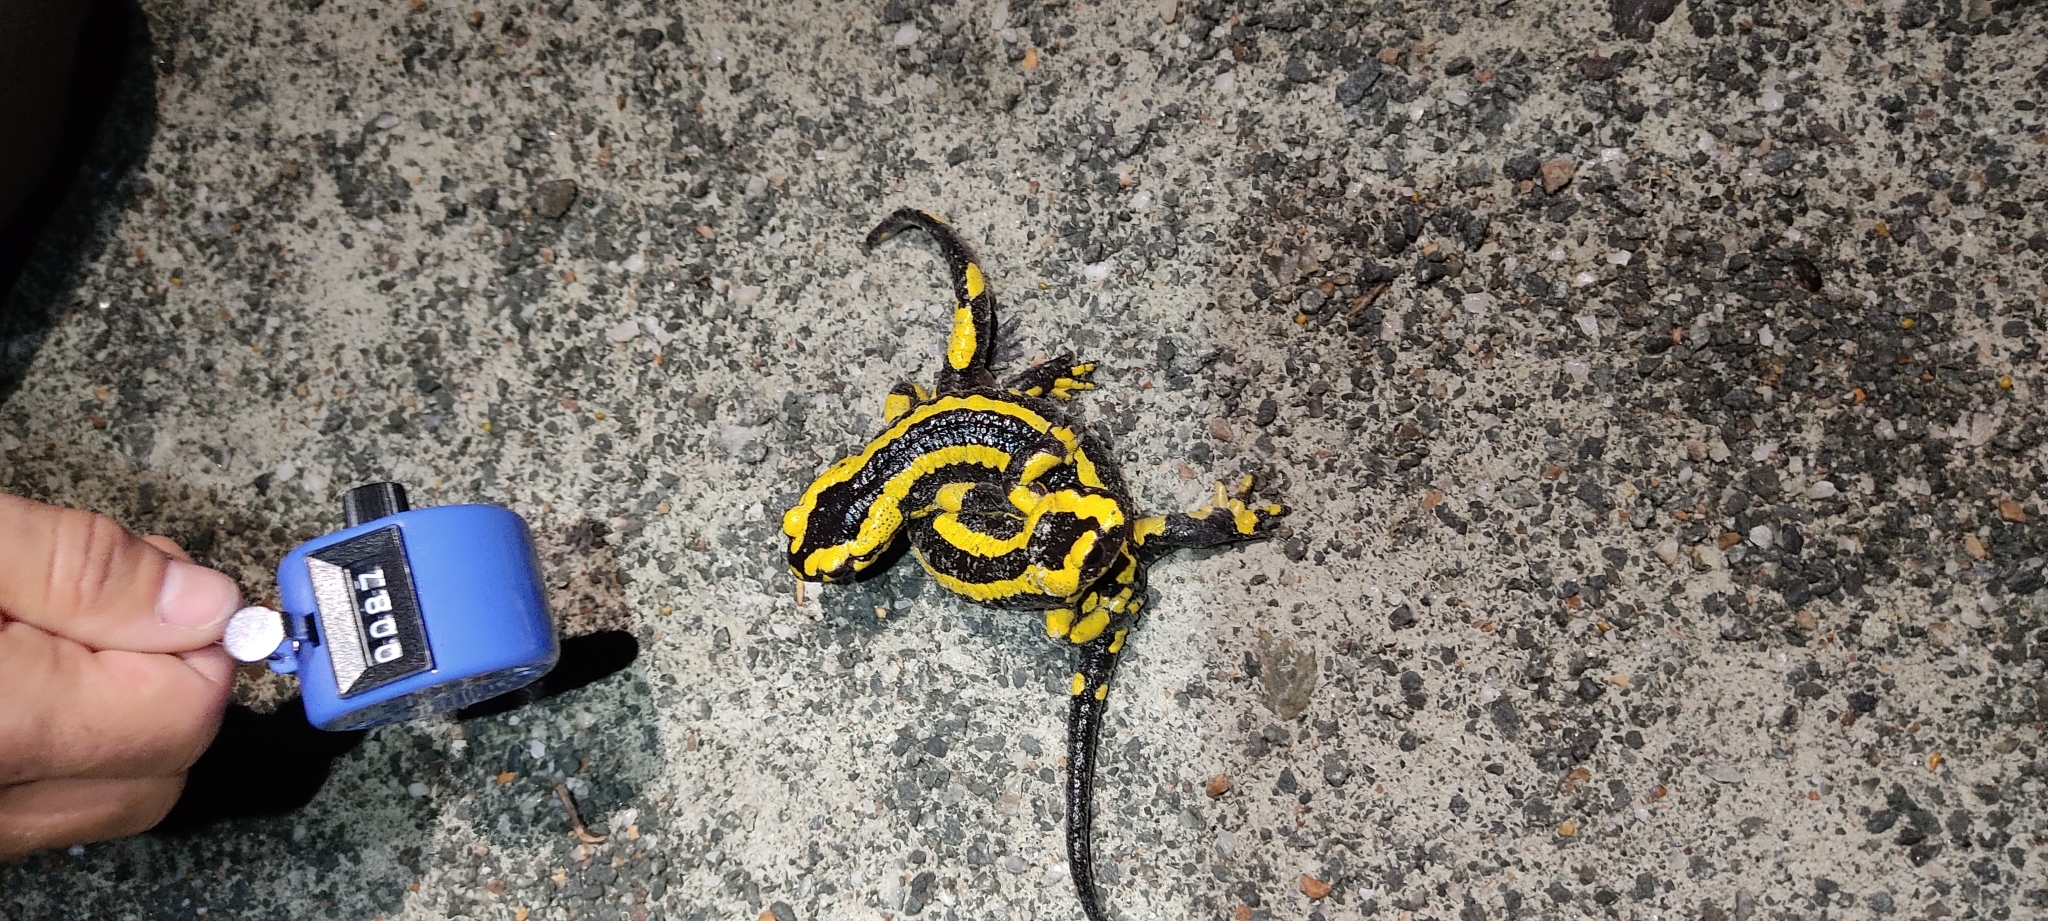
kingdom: Animalia
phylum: Chordata
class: Amphibia
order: Caudata
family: Salamandridae
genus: Salamandra
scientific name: Salamandra salamandra
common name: Fire salamander
